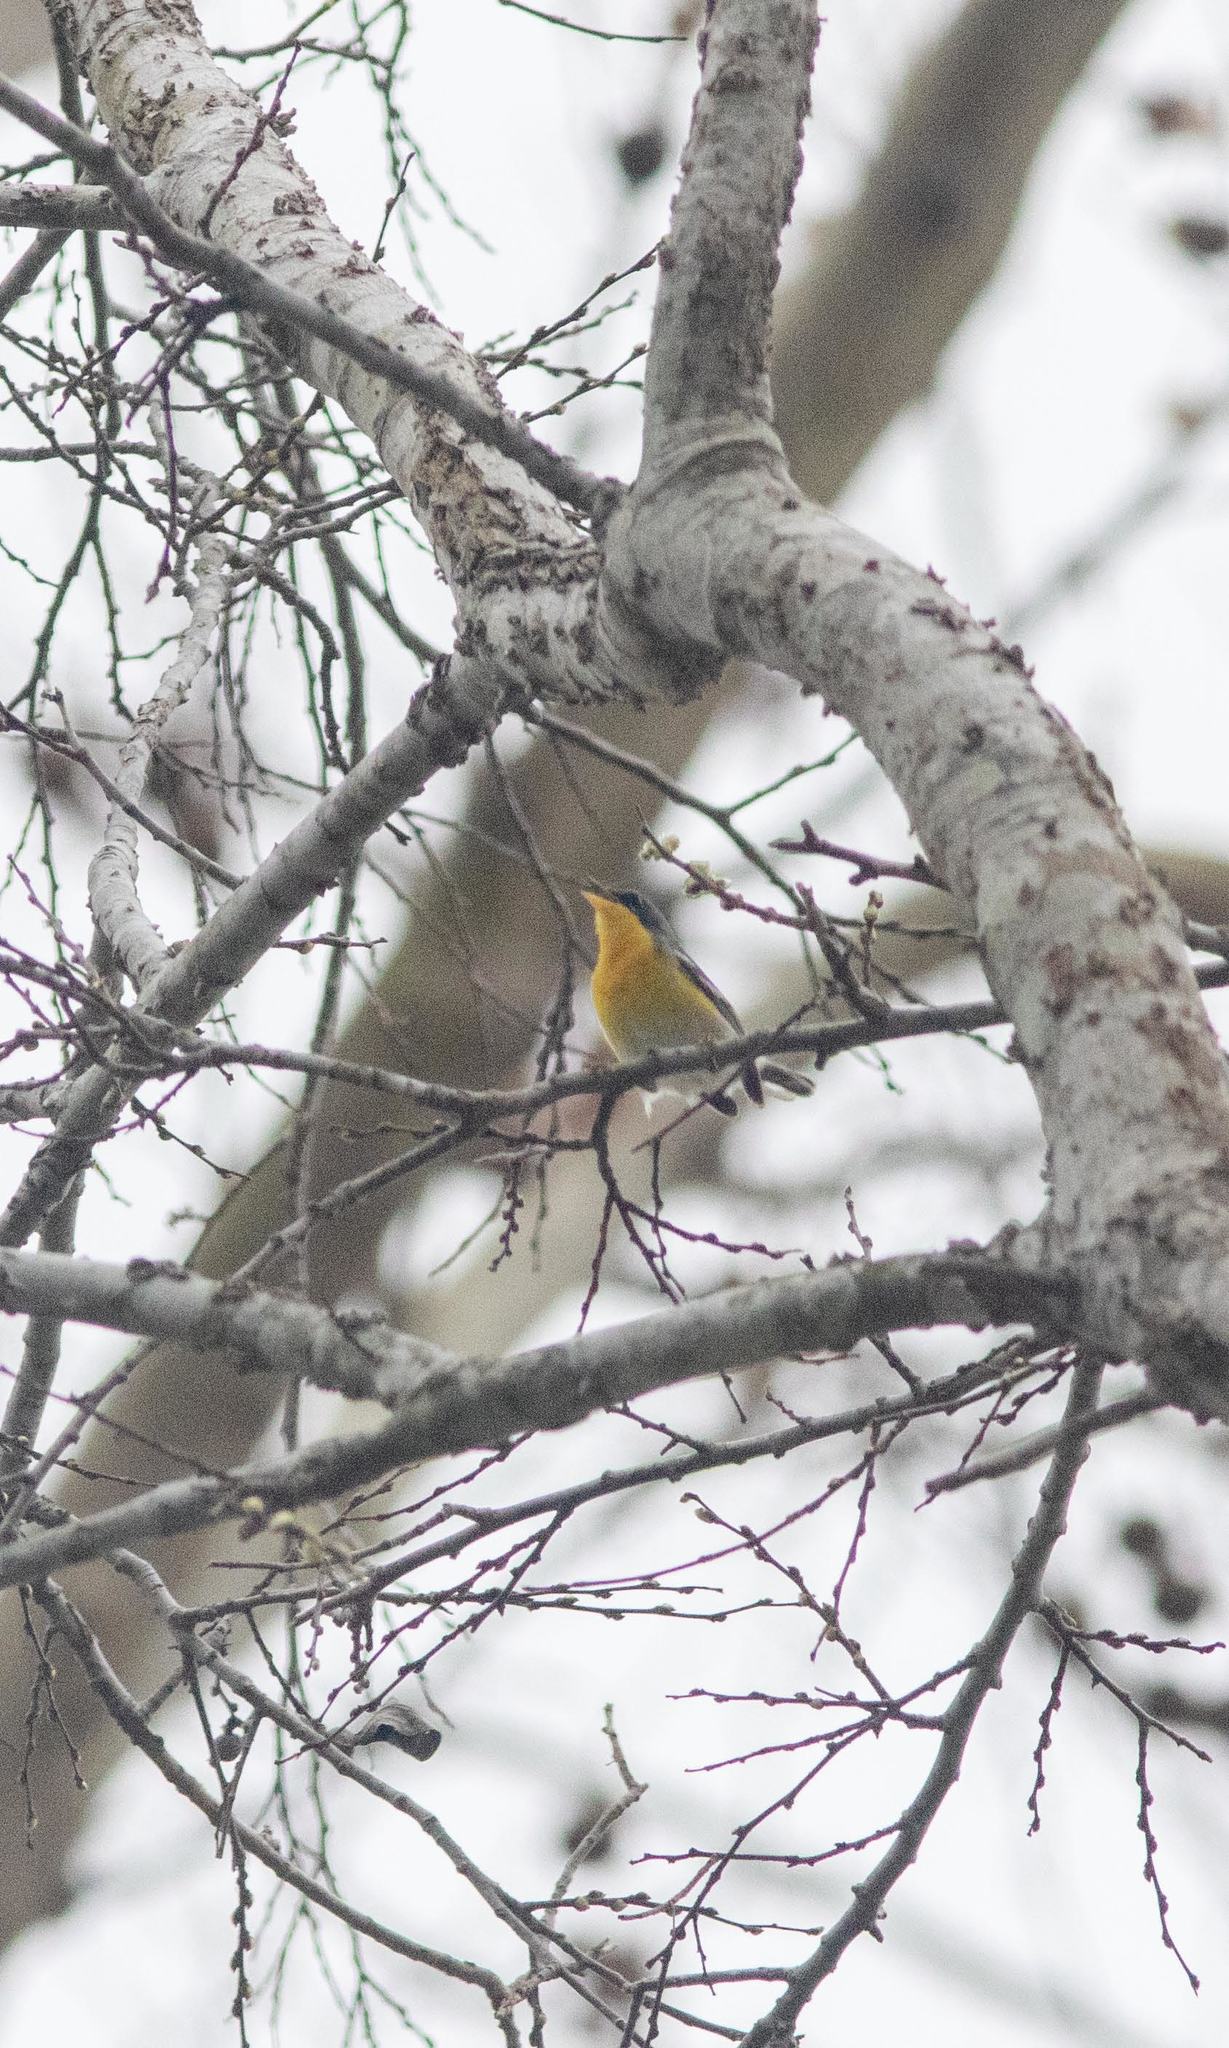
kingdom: Animalia
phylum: Chordata
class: Aves
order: Passeriformes
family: Parulidae
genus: Setophaga
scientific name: Setophaga pitiayumi
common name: Tropical parula
